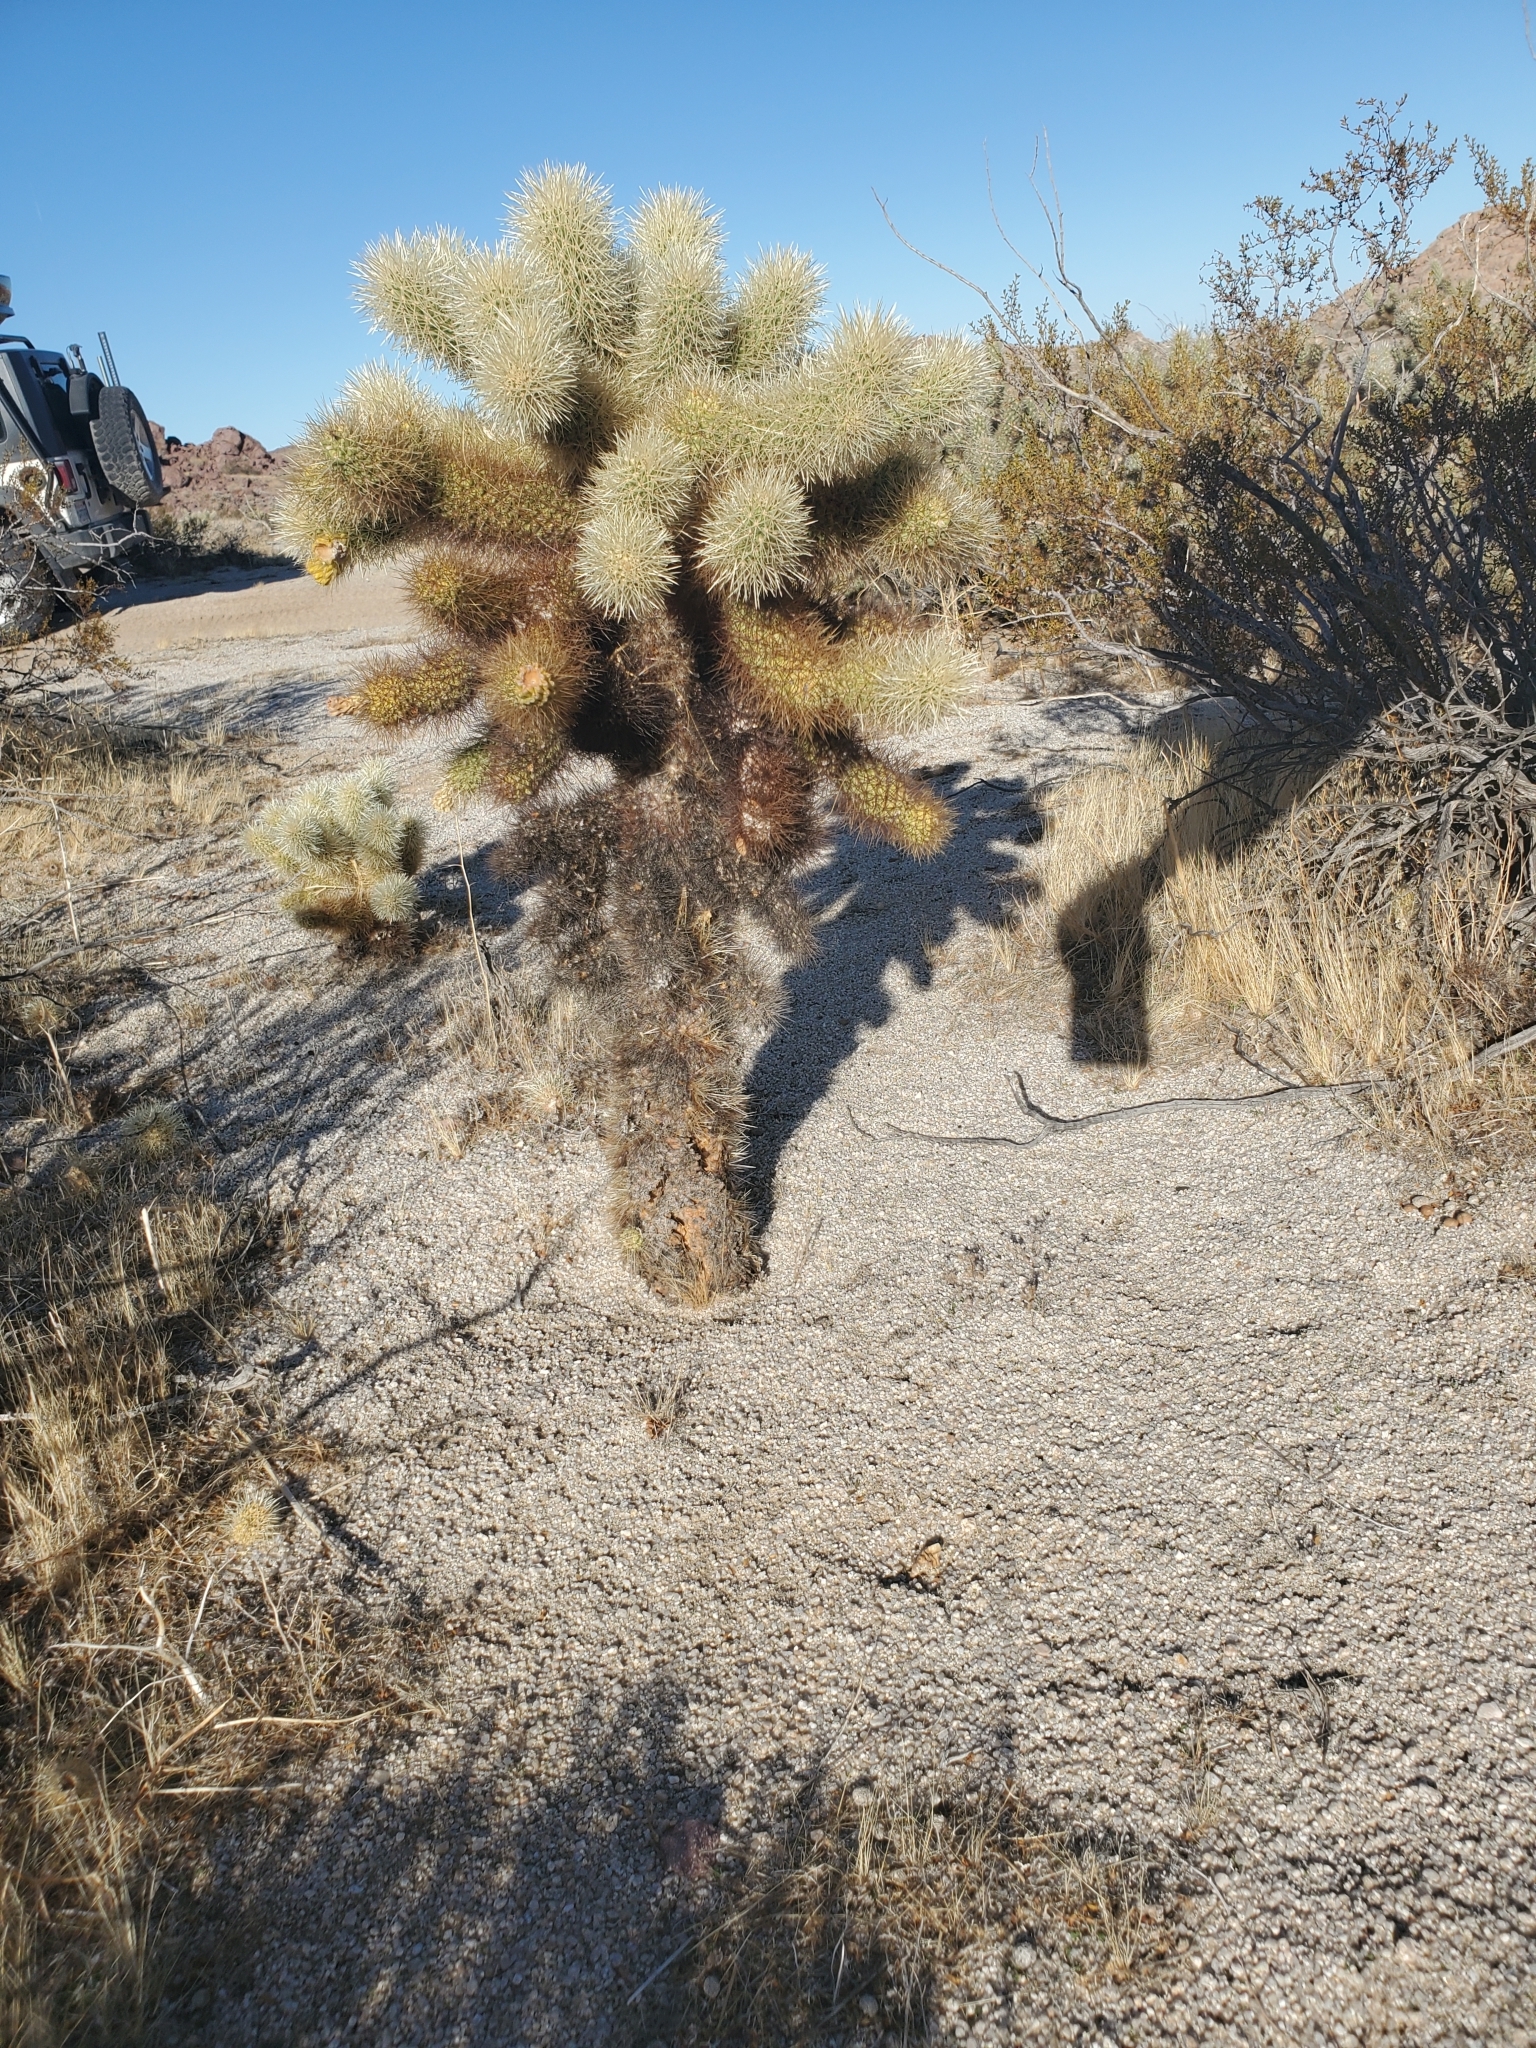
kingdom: Plantae
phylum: Tracheophyta
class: Magnoliopsida
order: Caryophyllales
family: Cactaceae
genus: Cylindropuntia
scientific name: Cylindropuntia fosbergii
